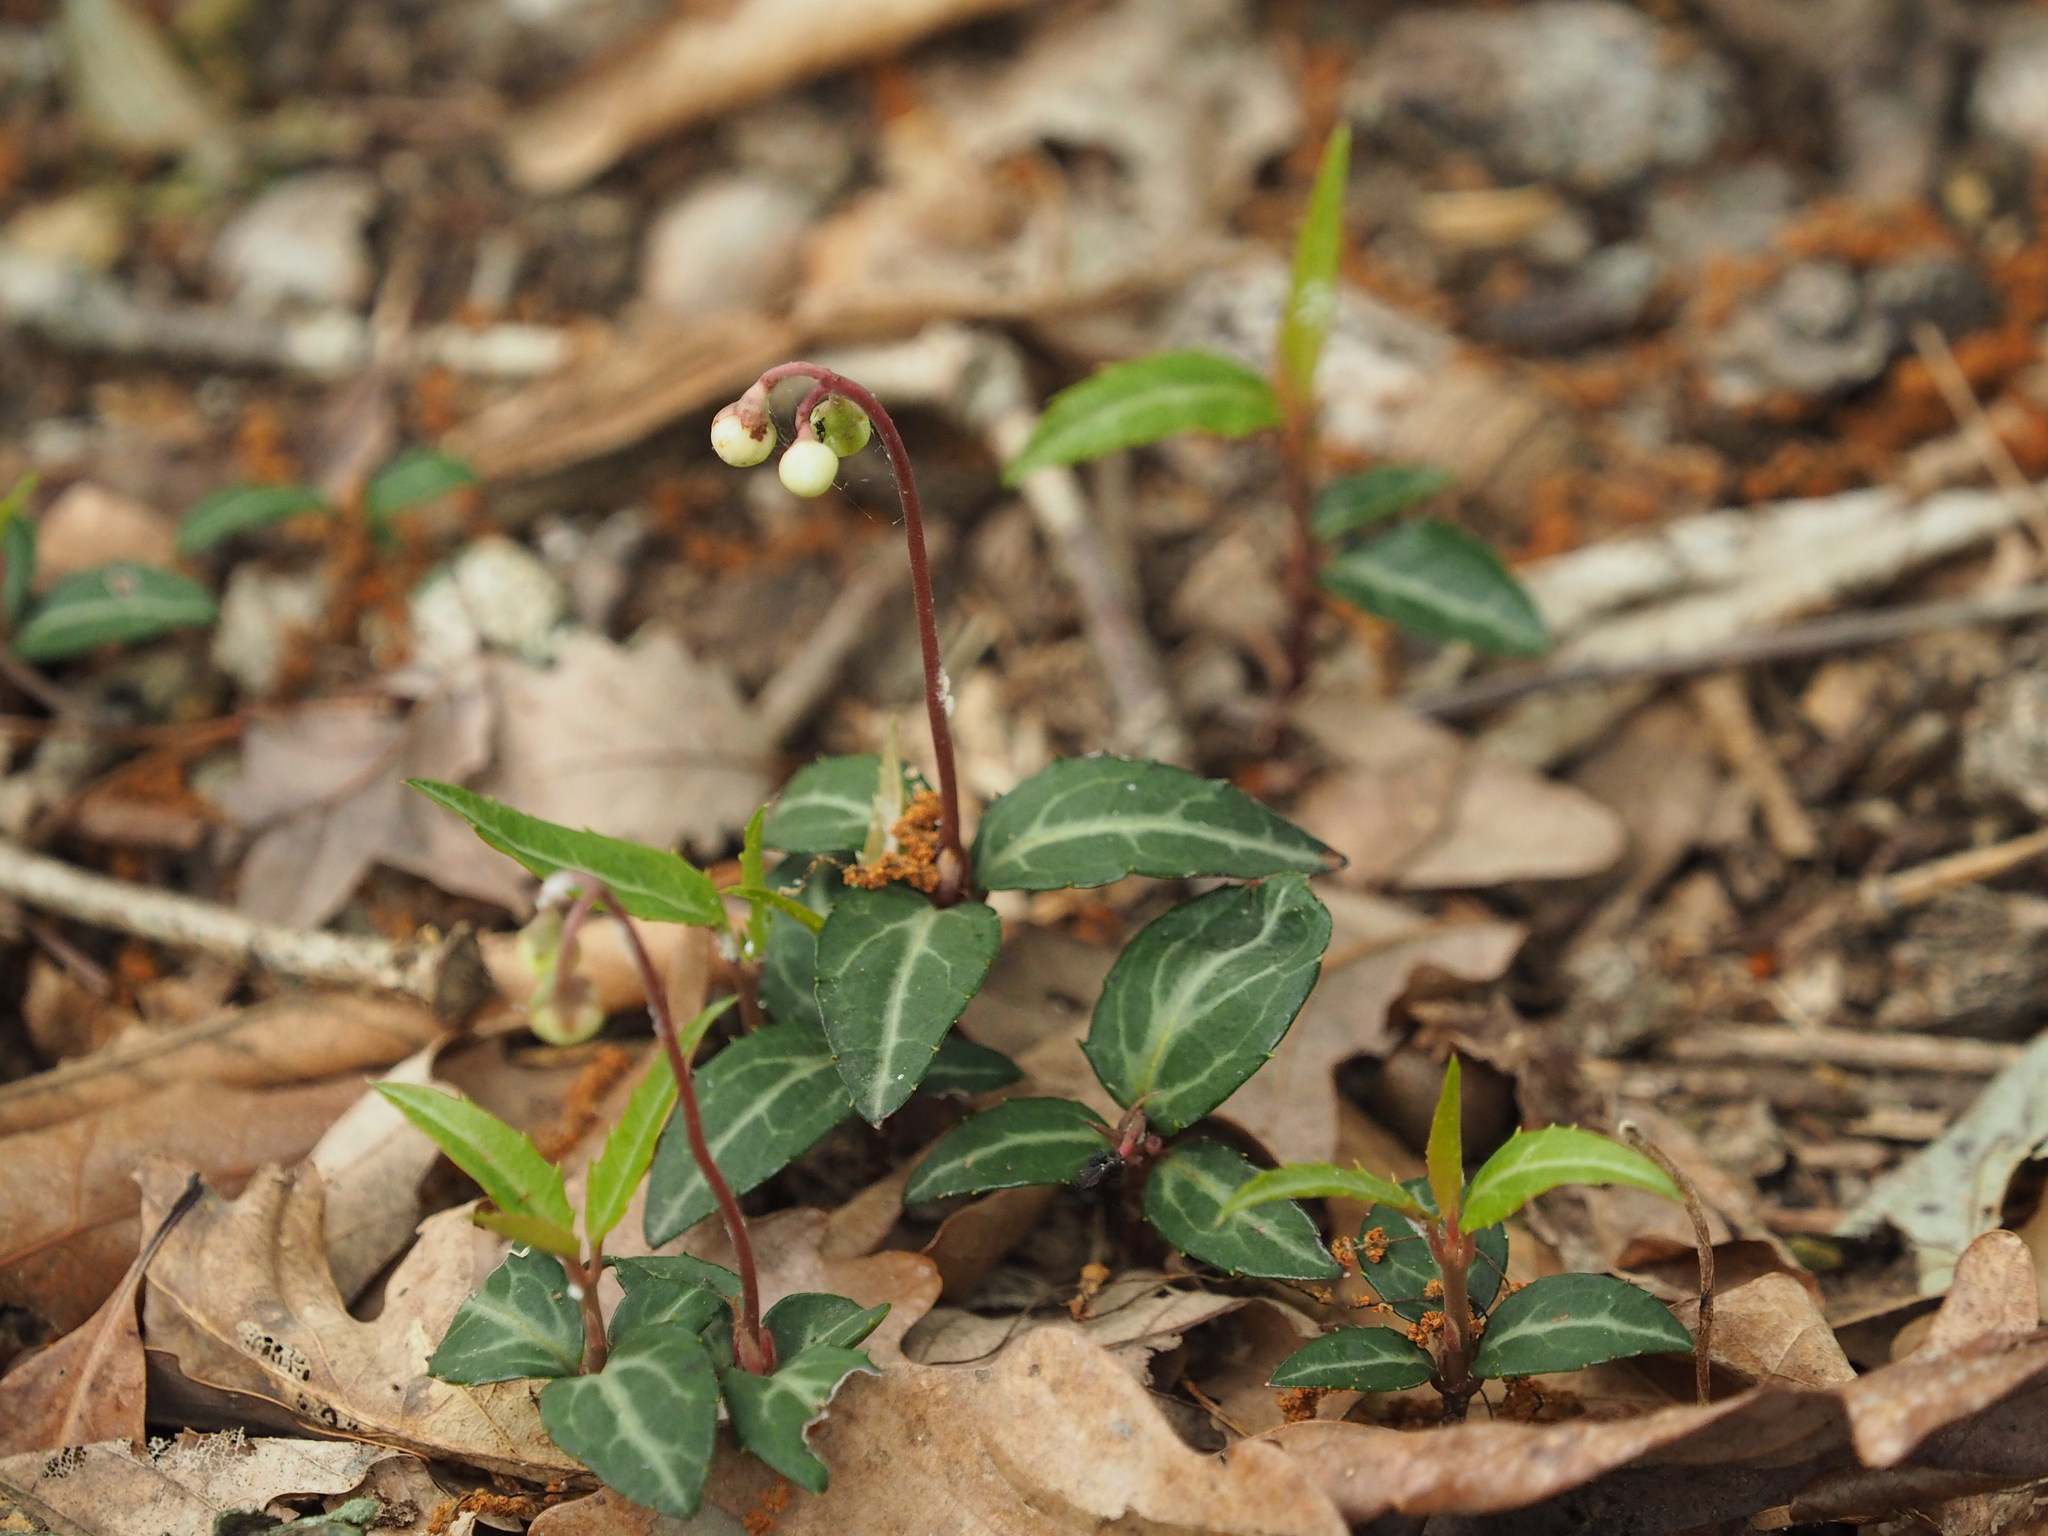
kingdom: Plantae
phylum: Tracheophyta
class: Magnoliopsida
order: Ericales
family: Ericaceae
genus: Chimaphila
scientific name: Chimaphila maculata
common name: Spotted pipsissewa
